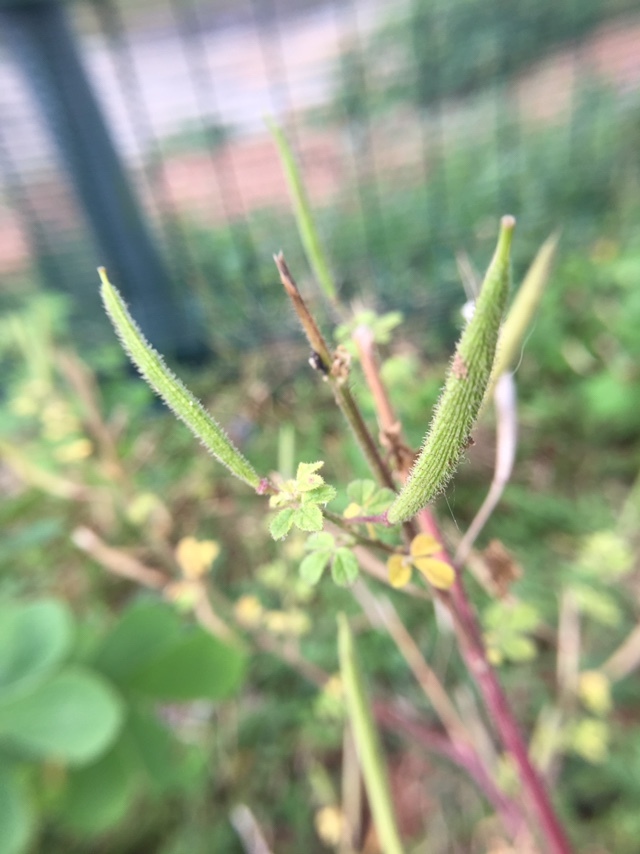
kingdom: Plantae
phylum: Tracheophyta
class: Magnoliopsida
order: Brassicales
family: Cleomaceae
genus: Arivela
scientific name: Arivela viscosa
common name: Asian spiderflower
